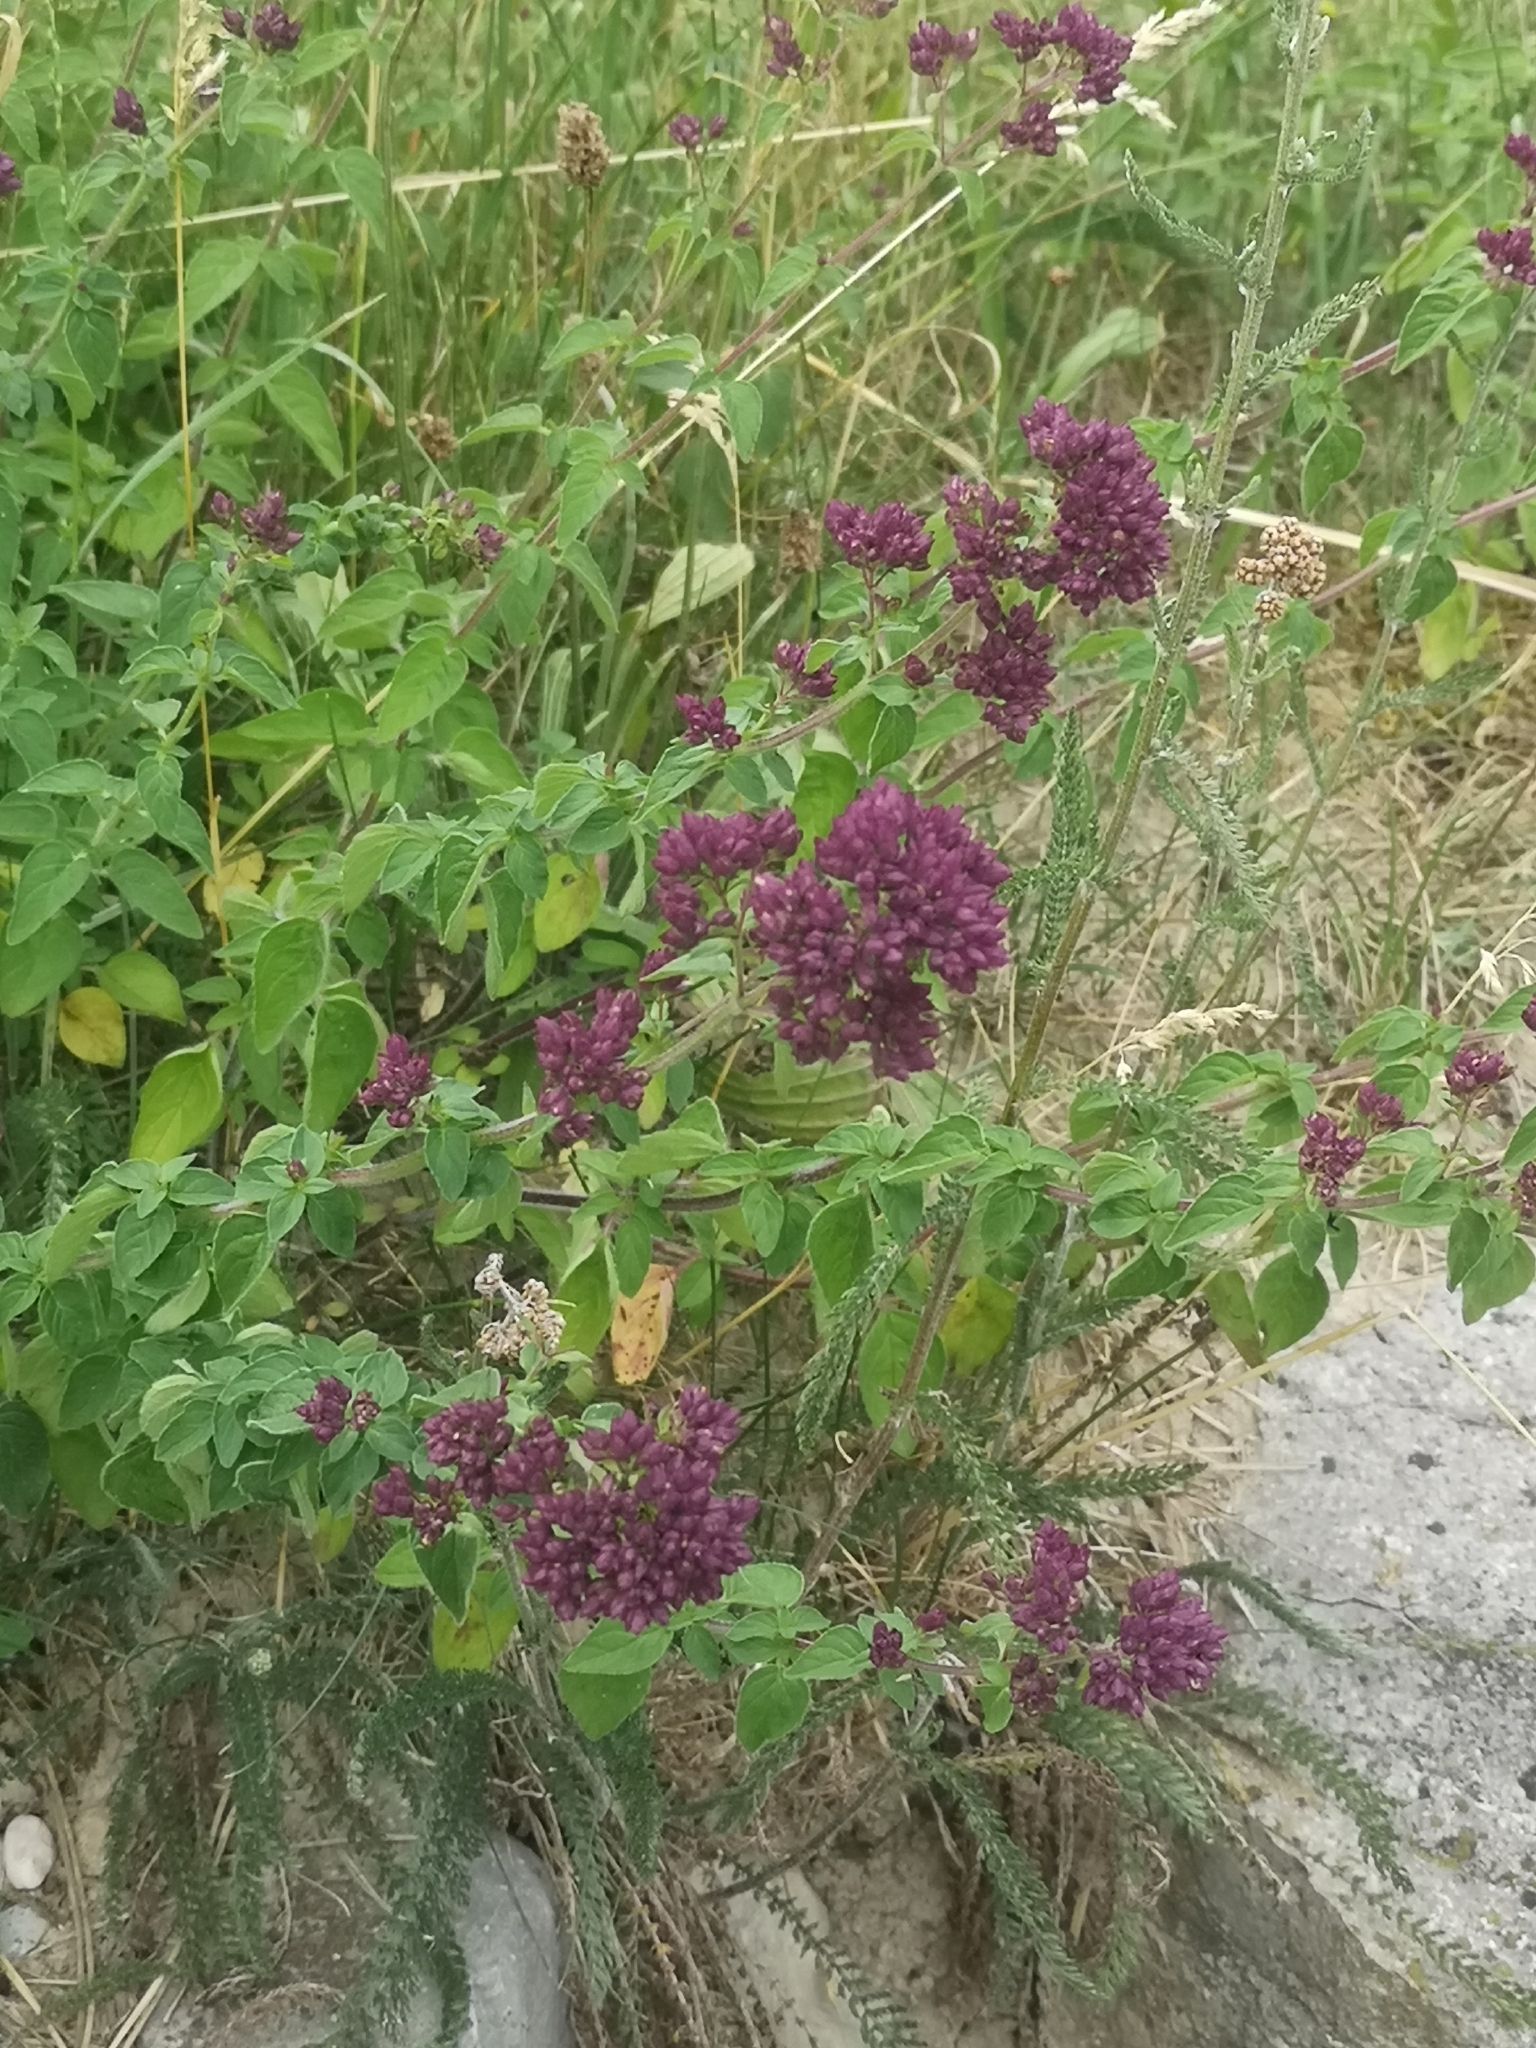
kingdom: Plantae
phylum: Tracheophyta
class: Magnoliopsida
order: Lamiales
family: Lamiaceae
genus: Origanum
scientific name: Origanum vulgare
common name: Wild marjoram
